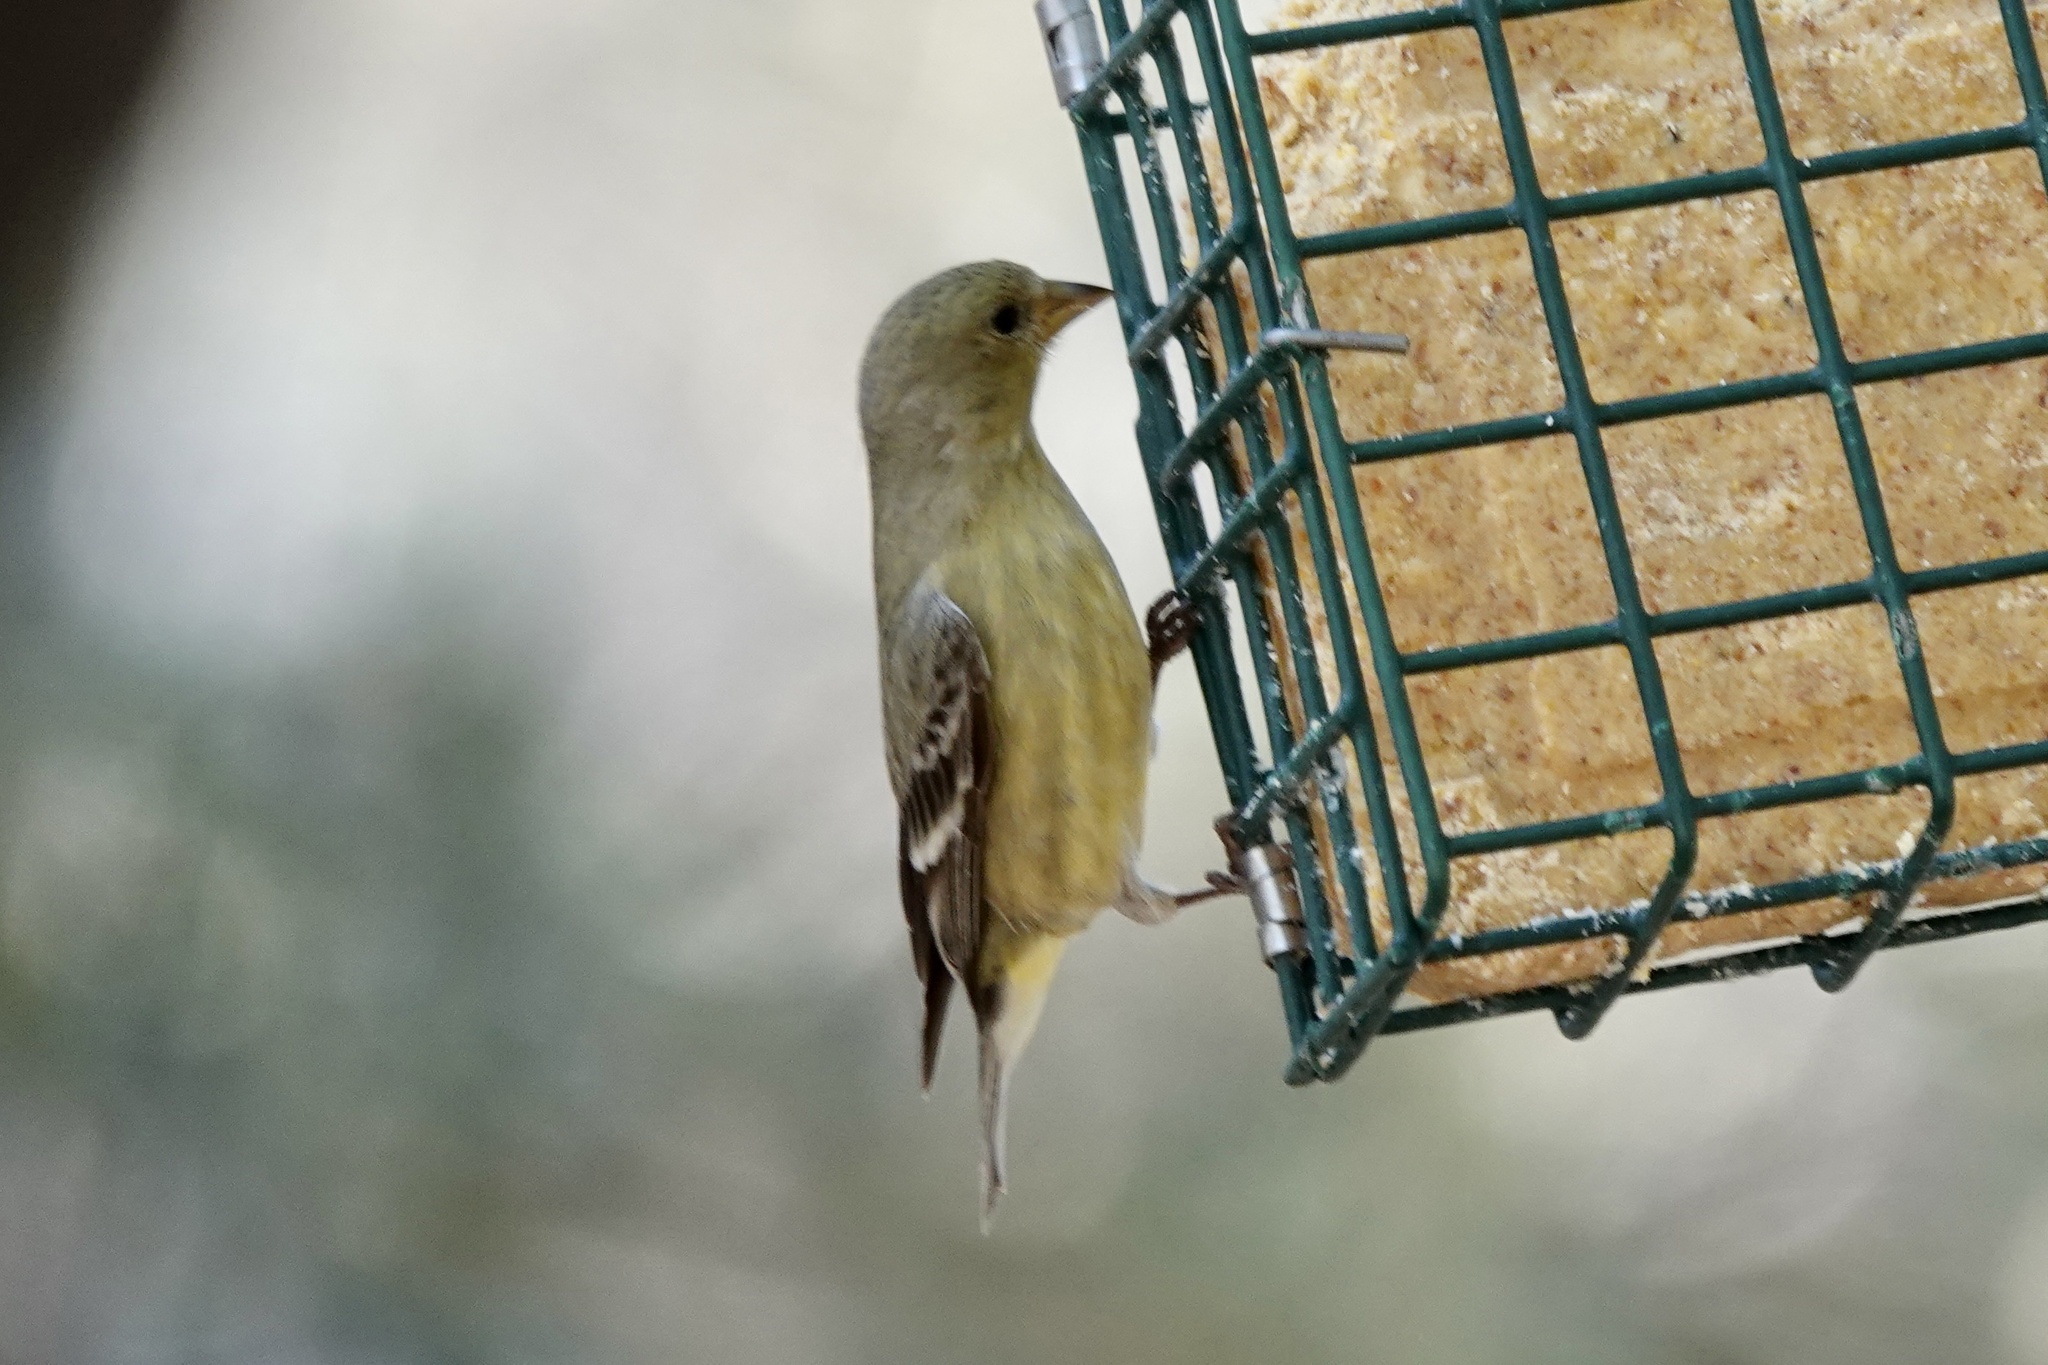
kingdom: Animalia
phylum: Chordata
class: Aves
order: Passeriformes
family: Fringillidae
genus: Spinus
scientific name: Spinus psaltria
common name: Lesser goldfinch
